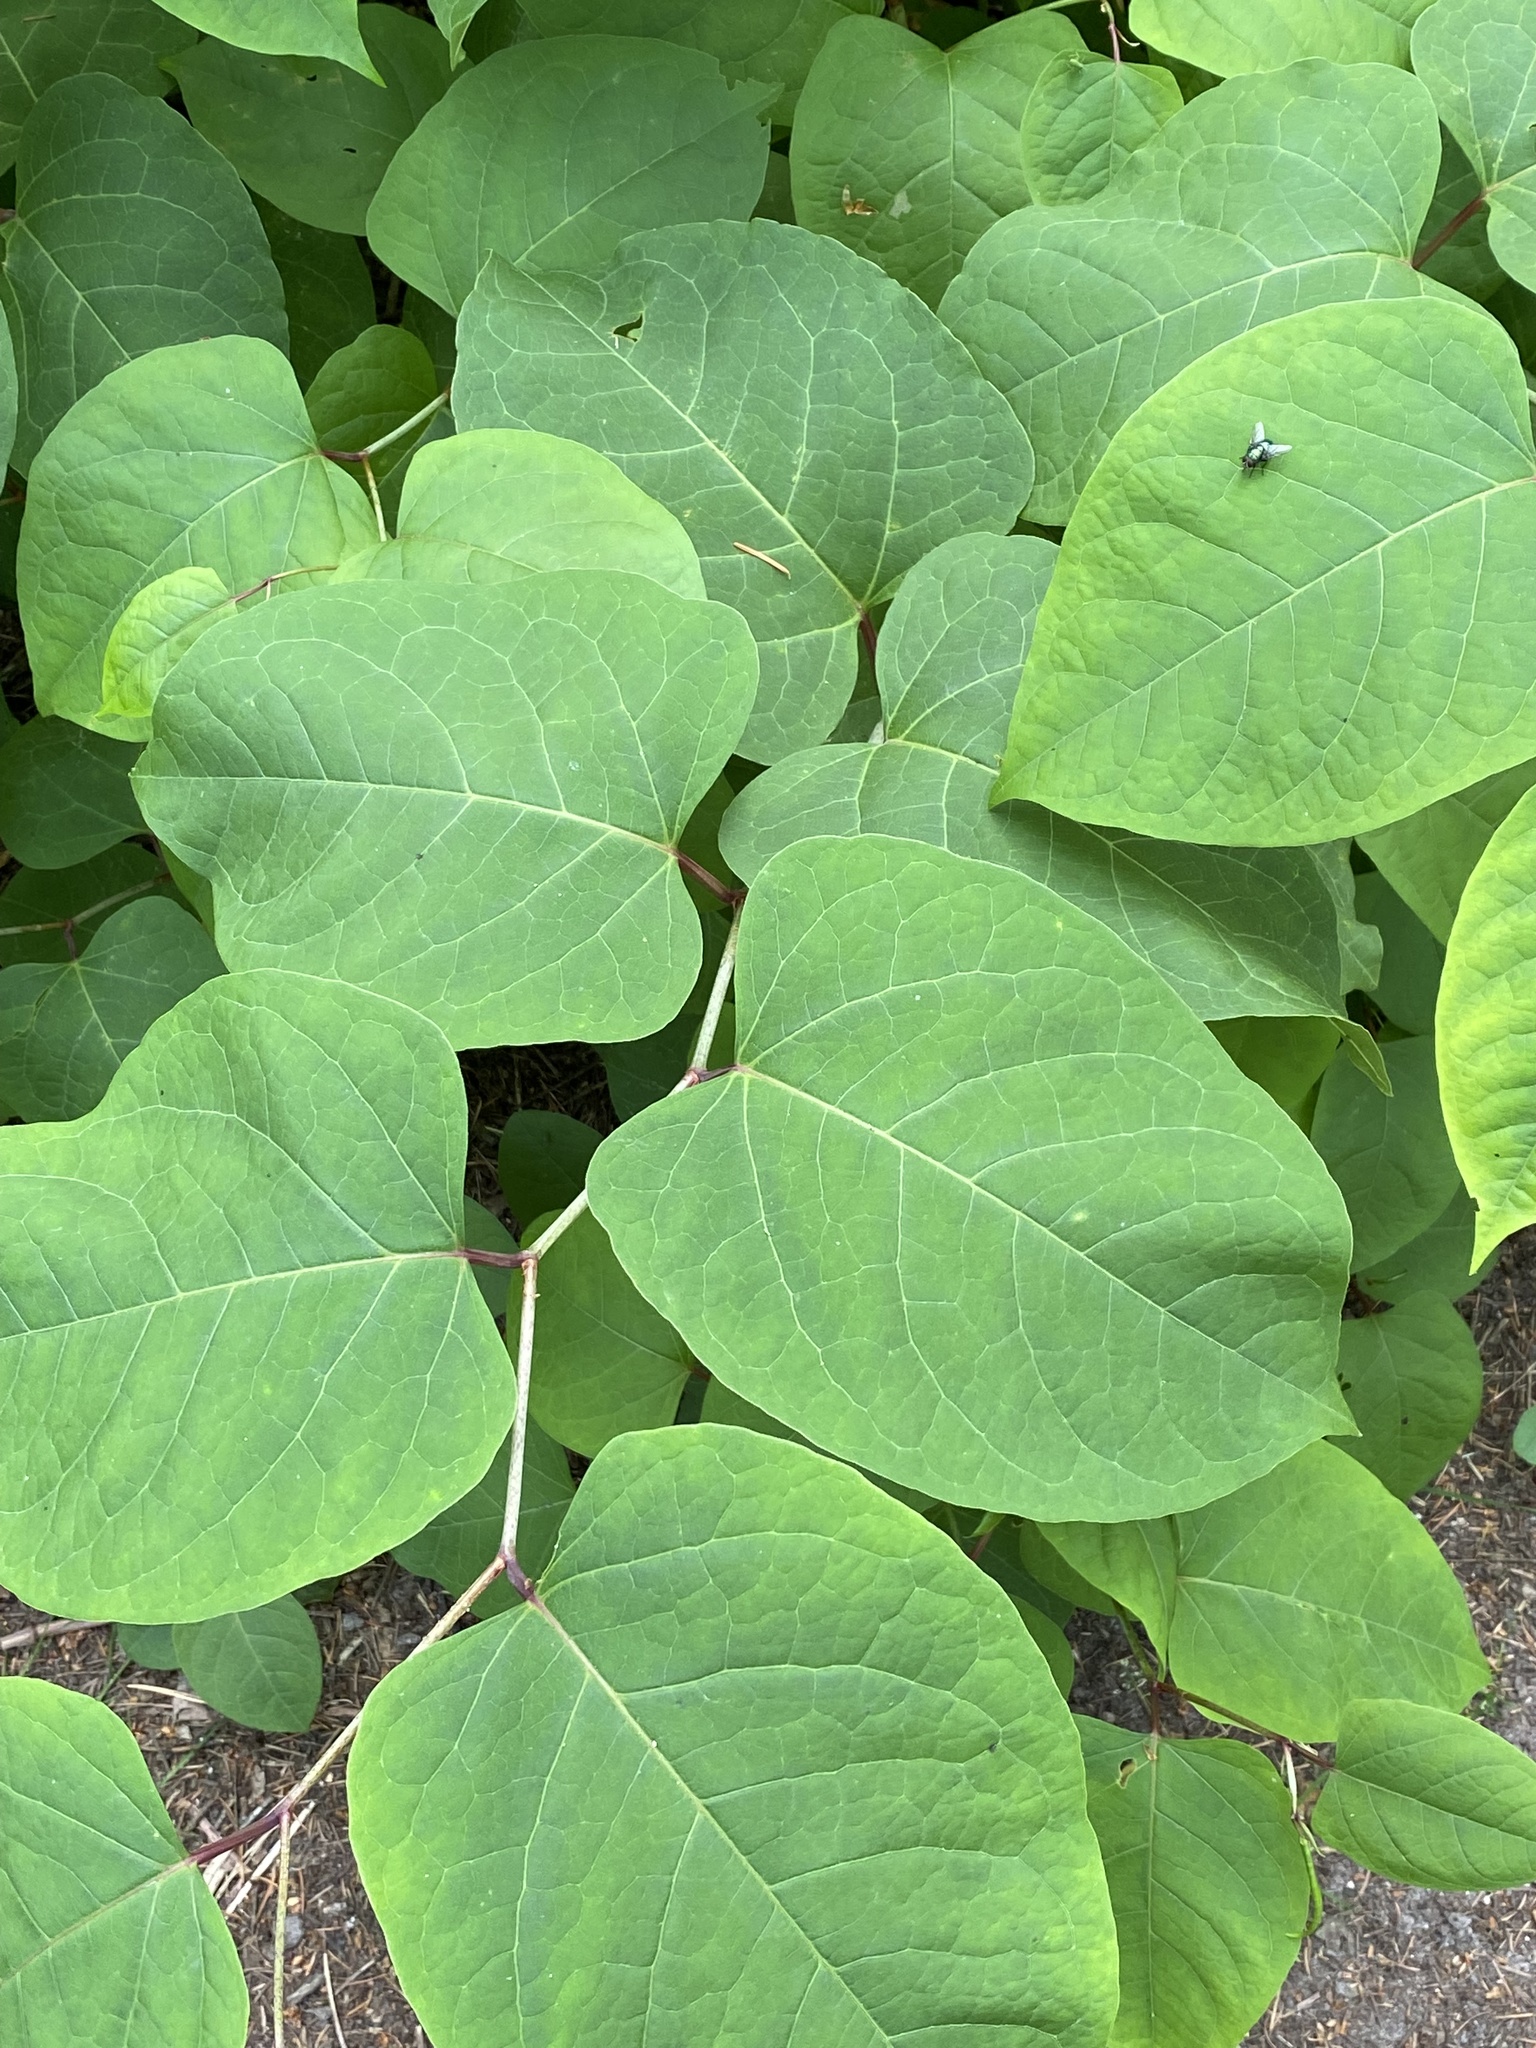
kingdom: Plantae
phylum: Tracheophyta
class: Magnoliopsida
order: Caryophyllales
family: Polygonaceae
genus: Reynoutria
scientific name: Reynoutria japonica
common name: Japanese knotweed
